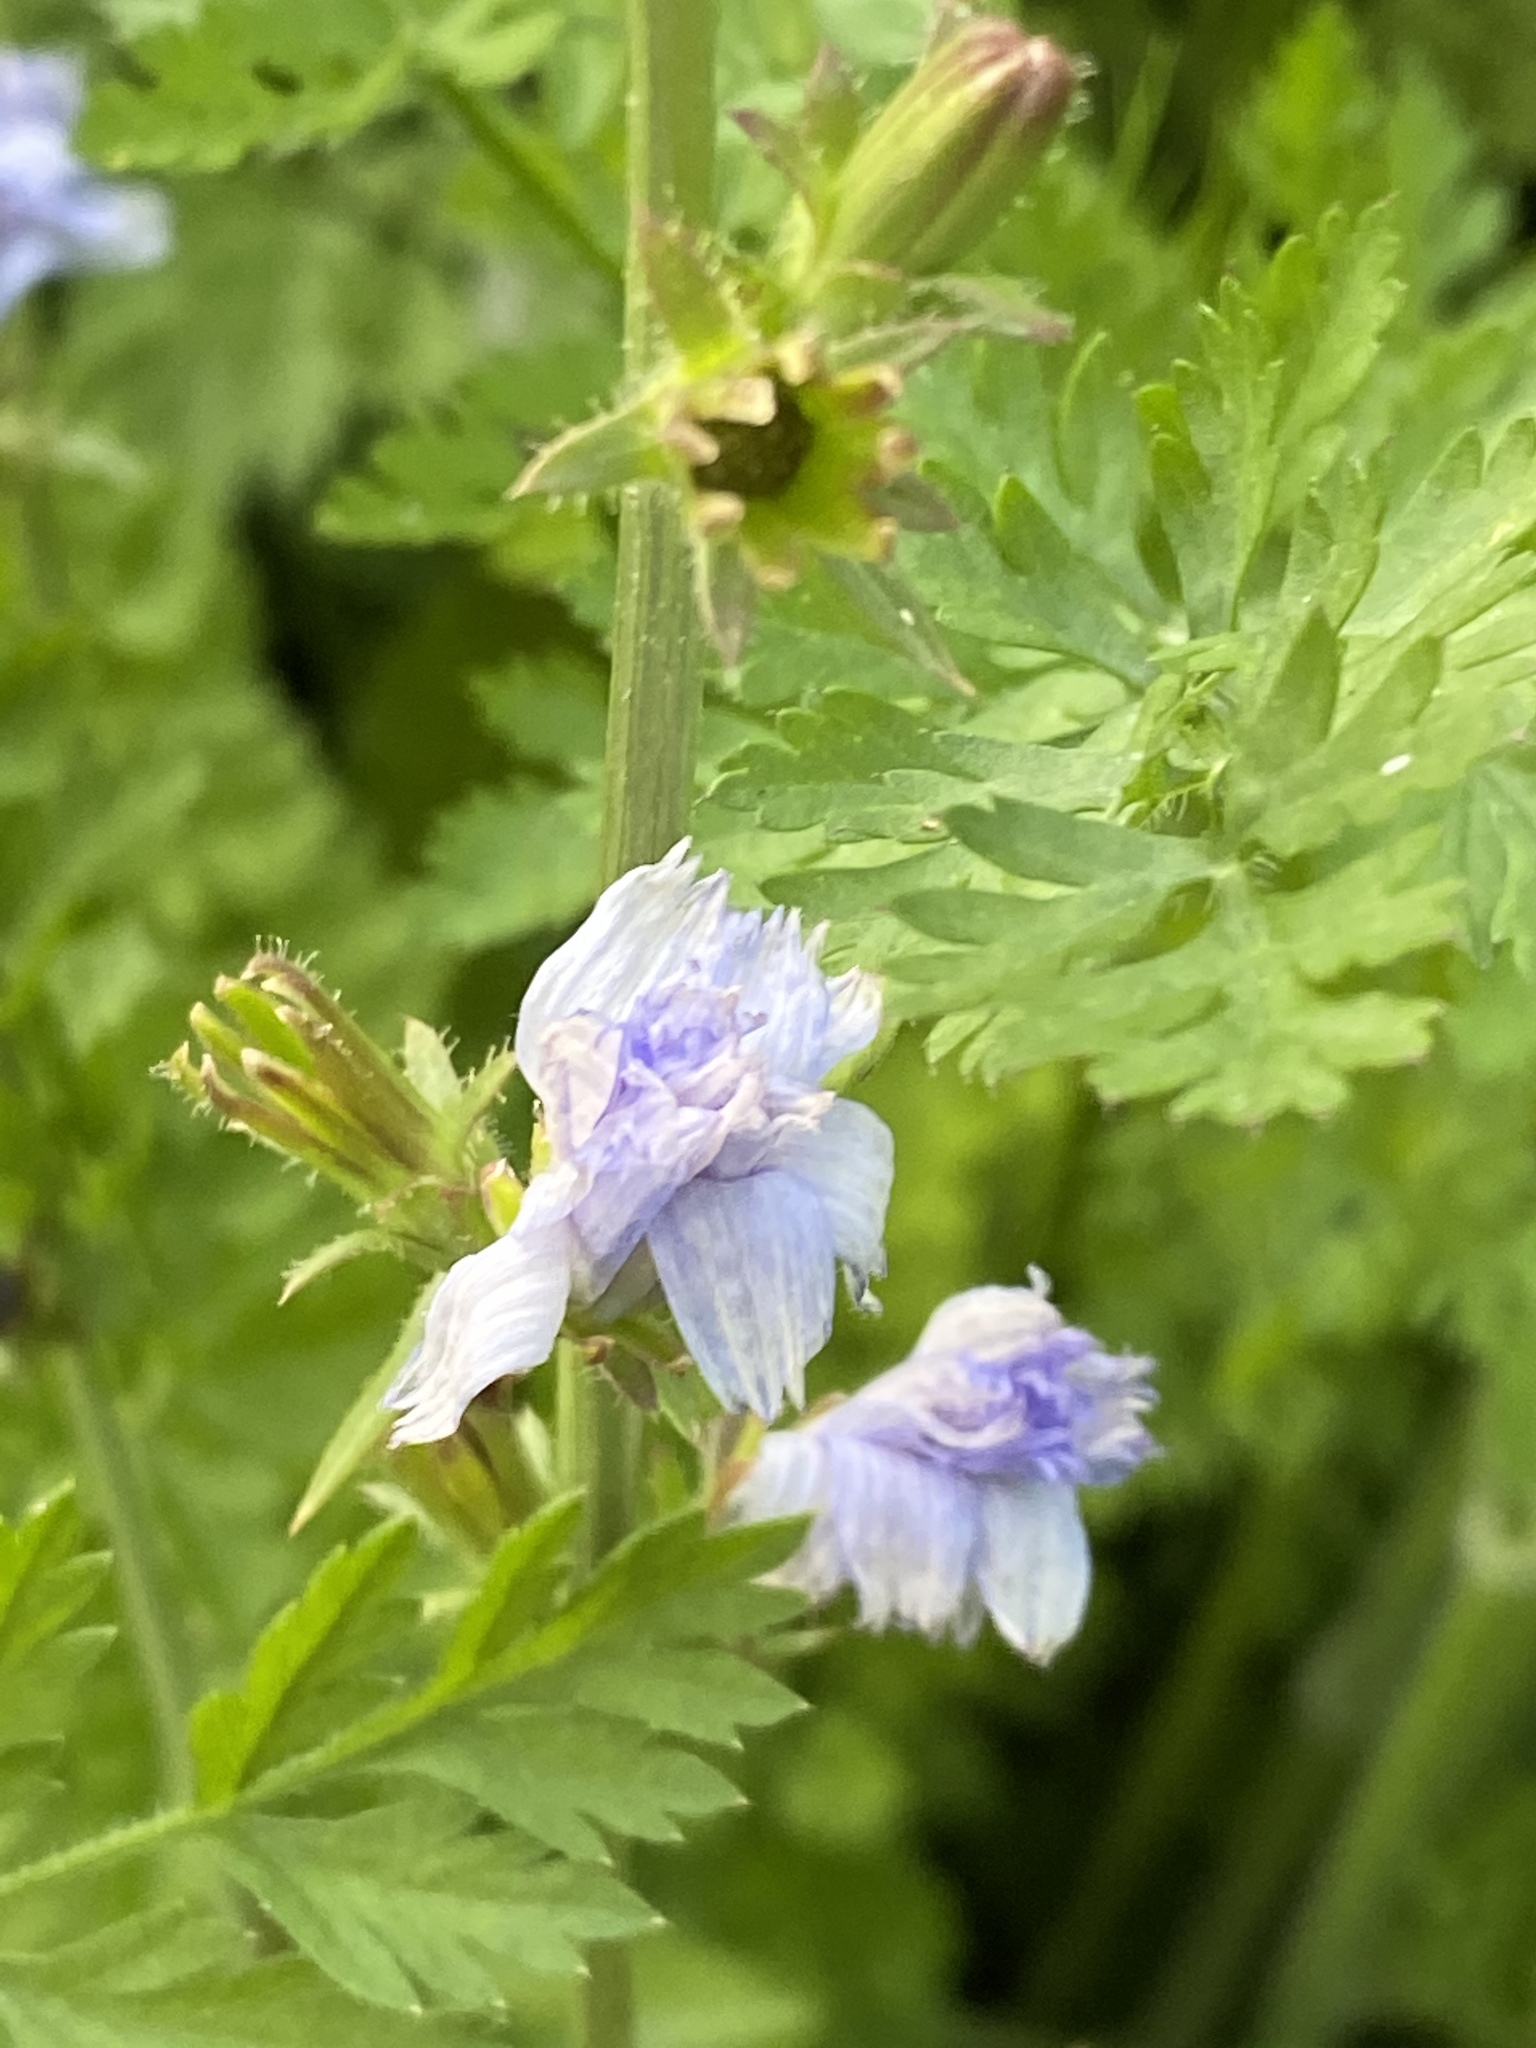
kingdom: Plantae
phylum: Tracheophyta
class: Magnoliopsida
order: Asterales
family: Asteraceae
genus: Cichorium
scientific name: Cichorium intybus
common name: Chicory
